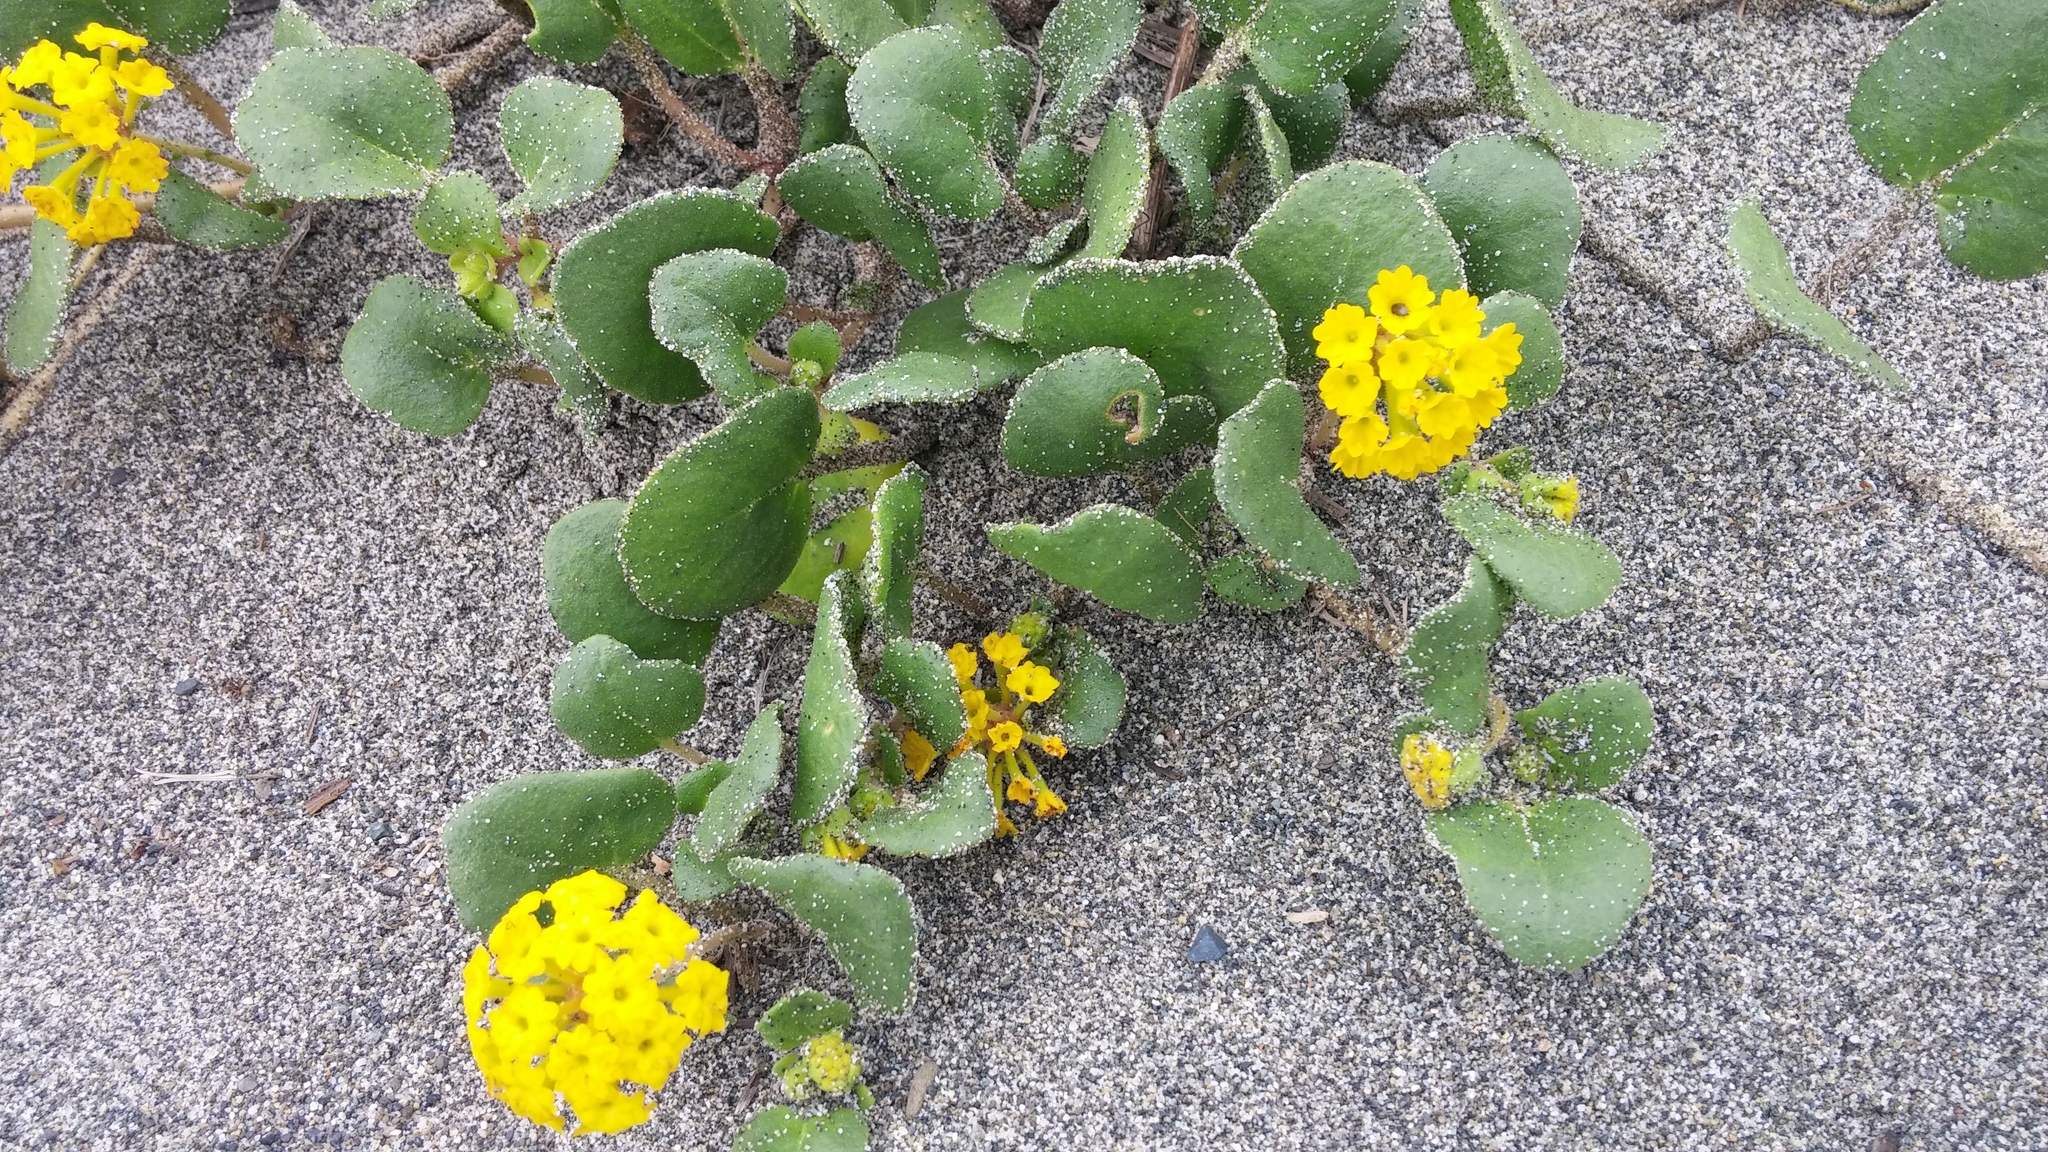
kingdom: Plantae
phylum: Tracheophyta
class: Magnoliopsida
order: Caryophyllales
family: Nyctaginaceae
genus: Abronia
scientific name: Abronia latifolia
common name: Yellow sand-verbena
